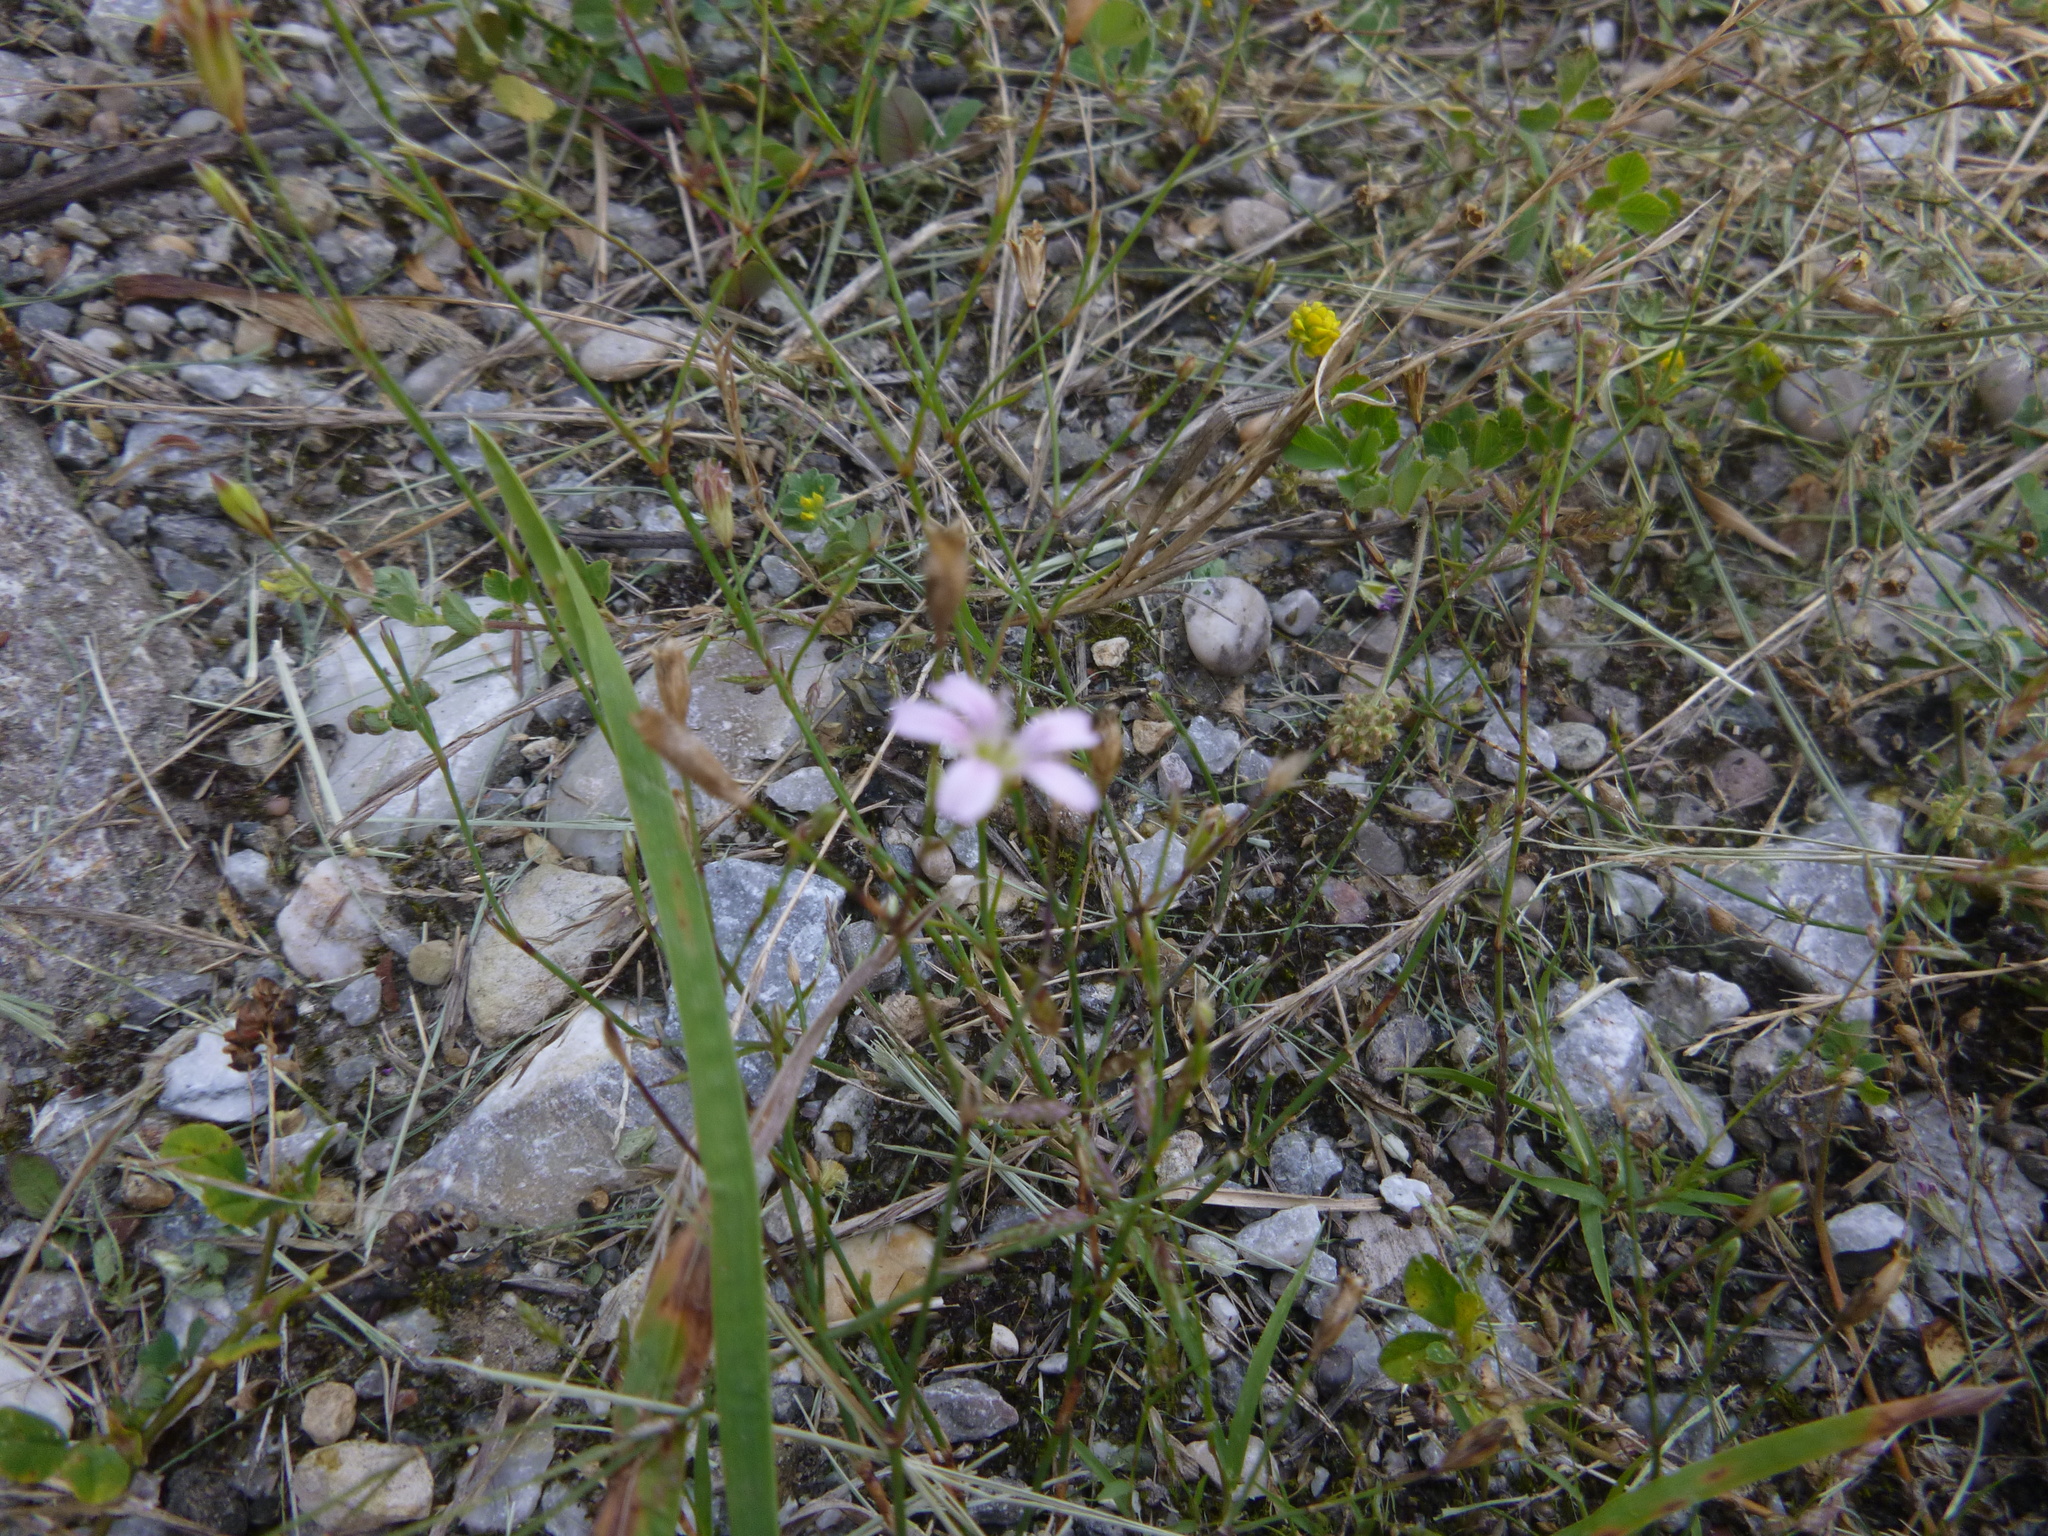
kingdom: Plantae
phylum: Tracheophyta
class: Magnoliopsida
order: Caryophyllales
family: Caryophyllaceae
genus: Petrorhagia
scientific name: Petrorhagia saxifraga
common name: Tunicflower
